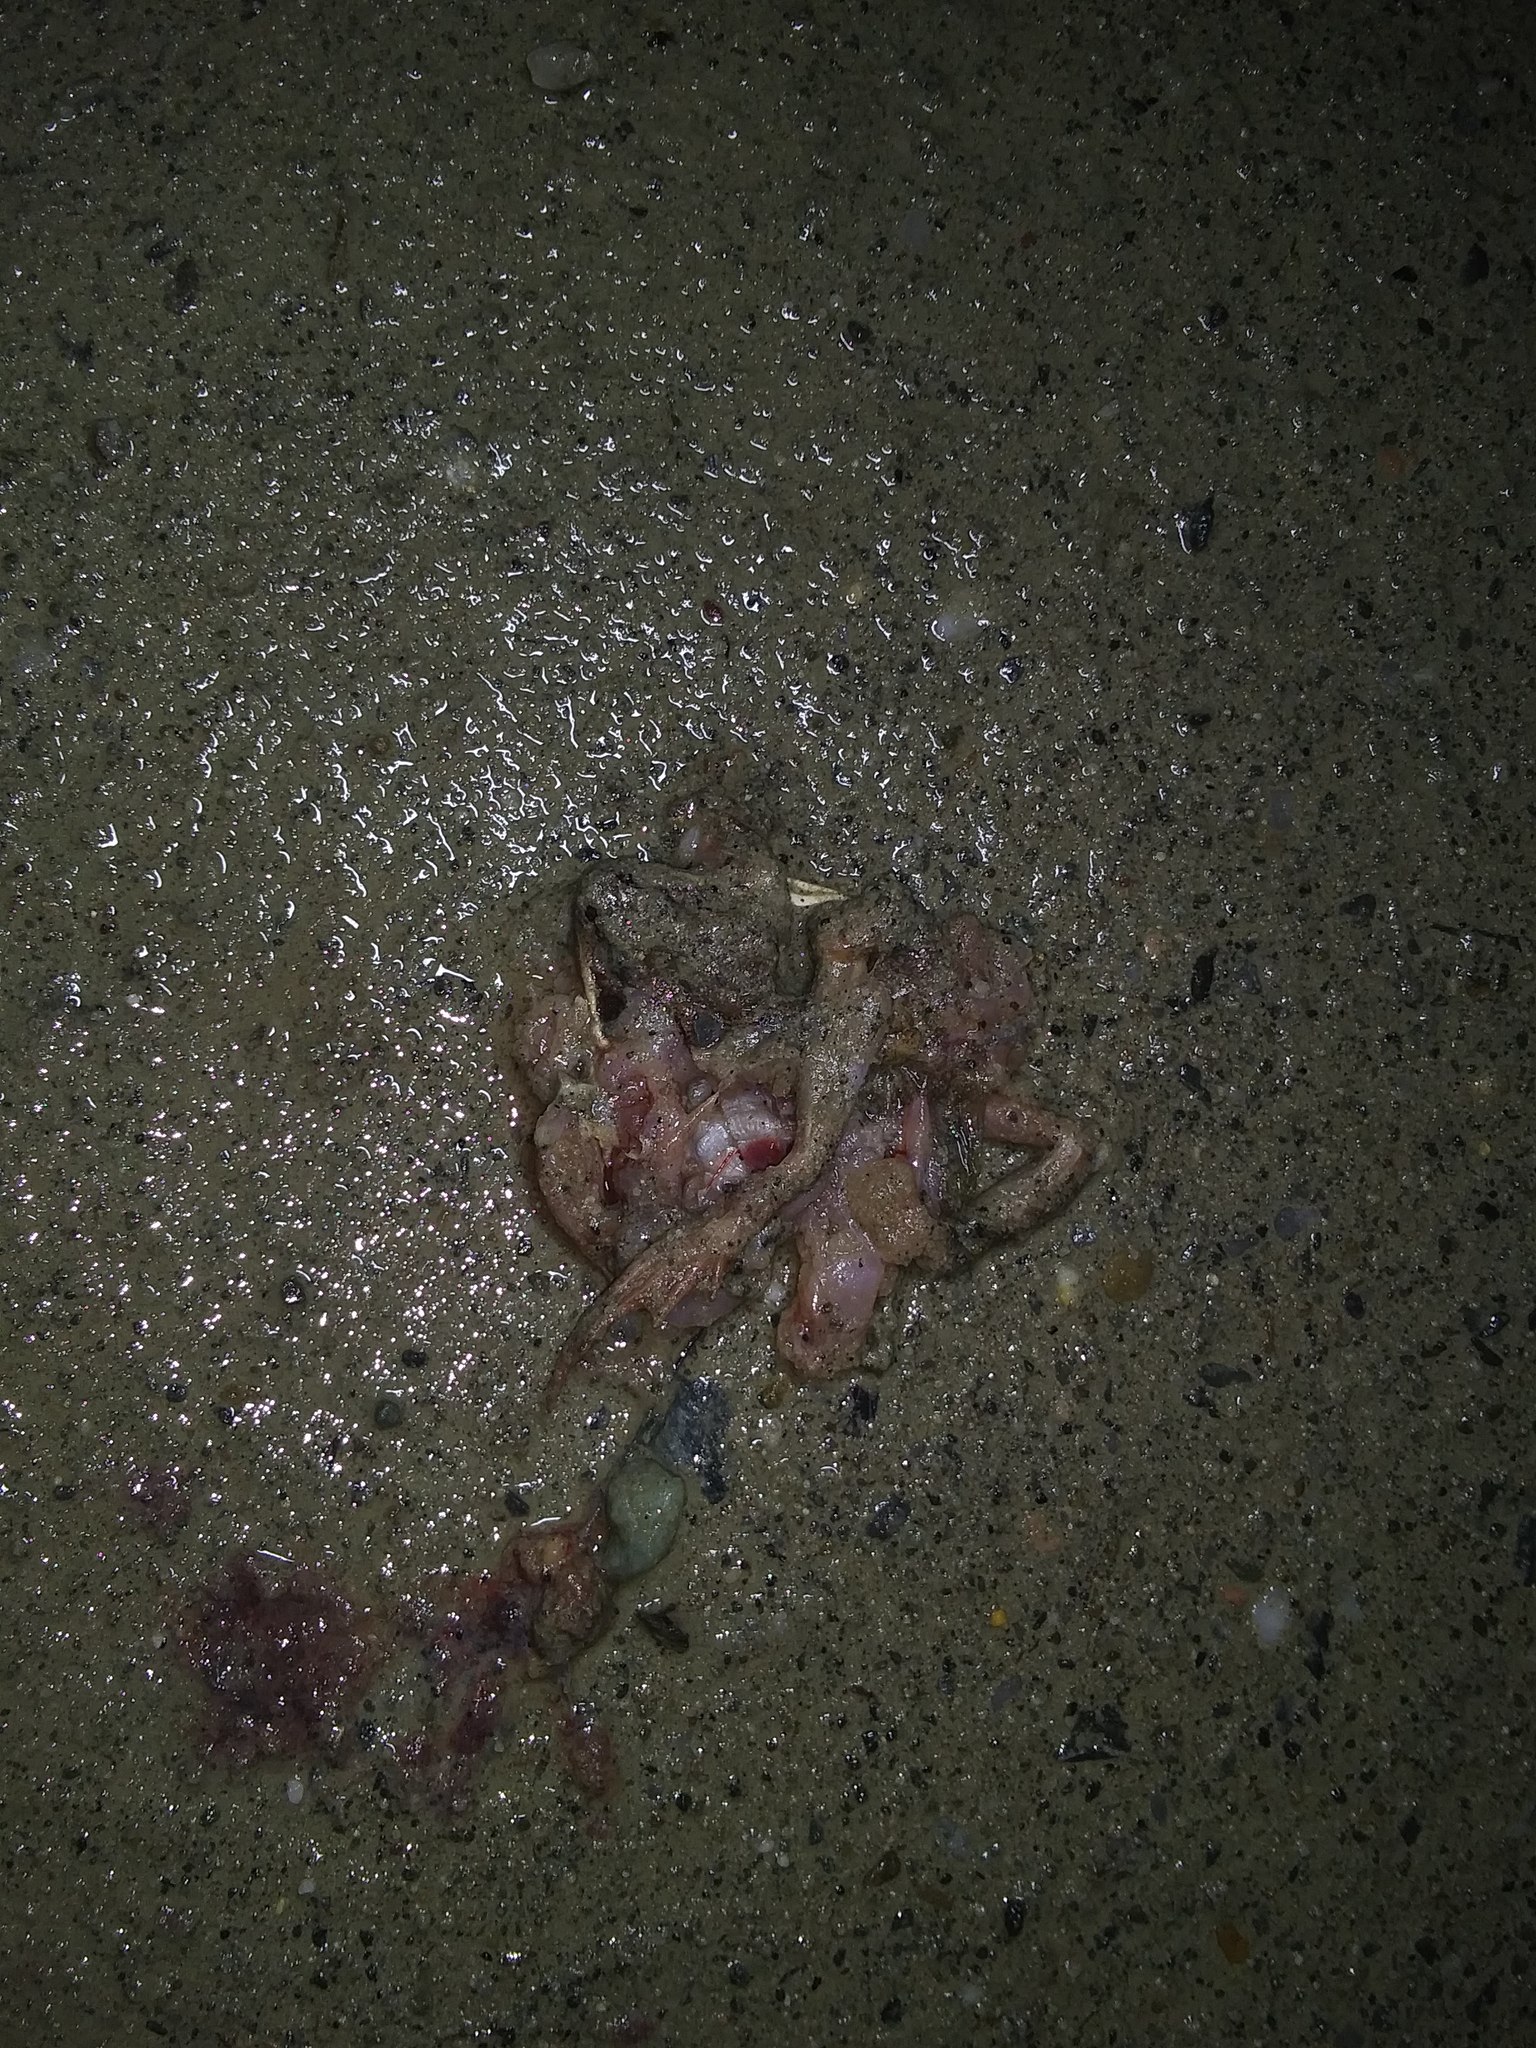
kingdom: Animalia
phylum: Chordata
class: Amphibia
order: Anura
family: Ranidae
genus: Lithobates
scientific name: Lithobates sylvaticus
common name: Wood frog
